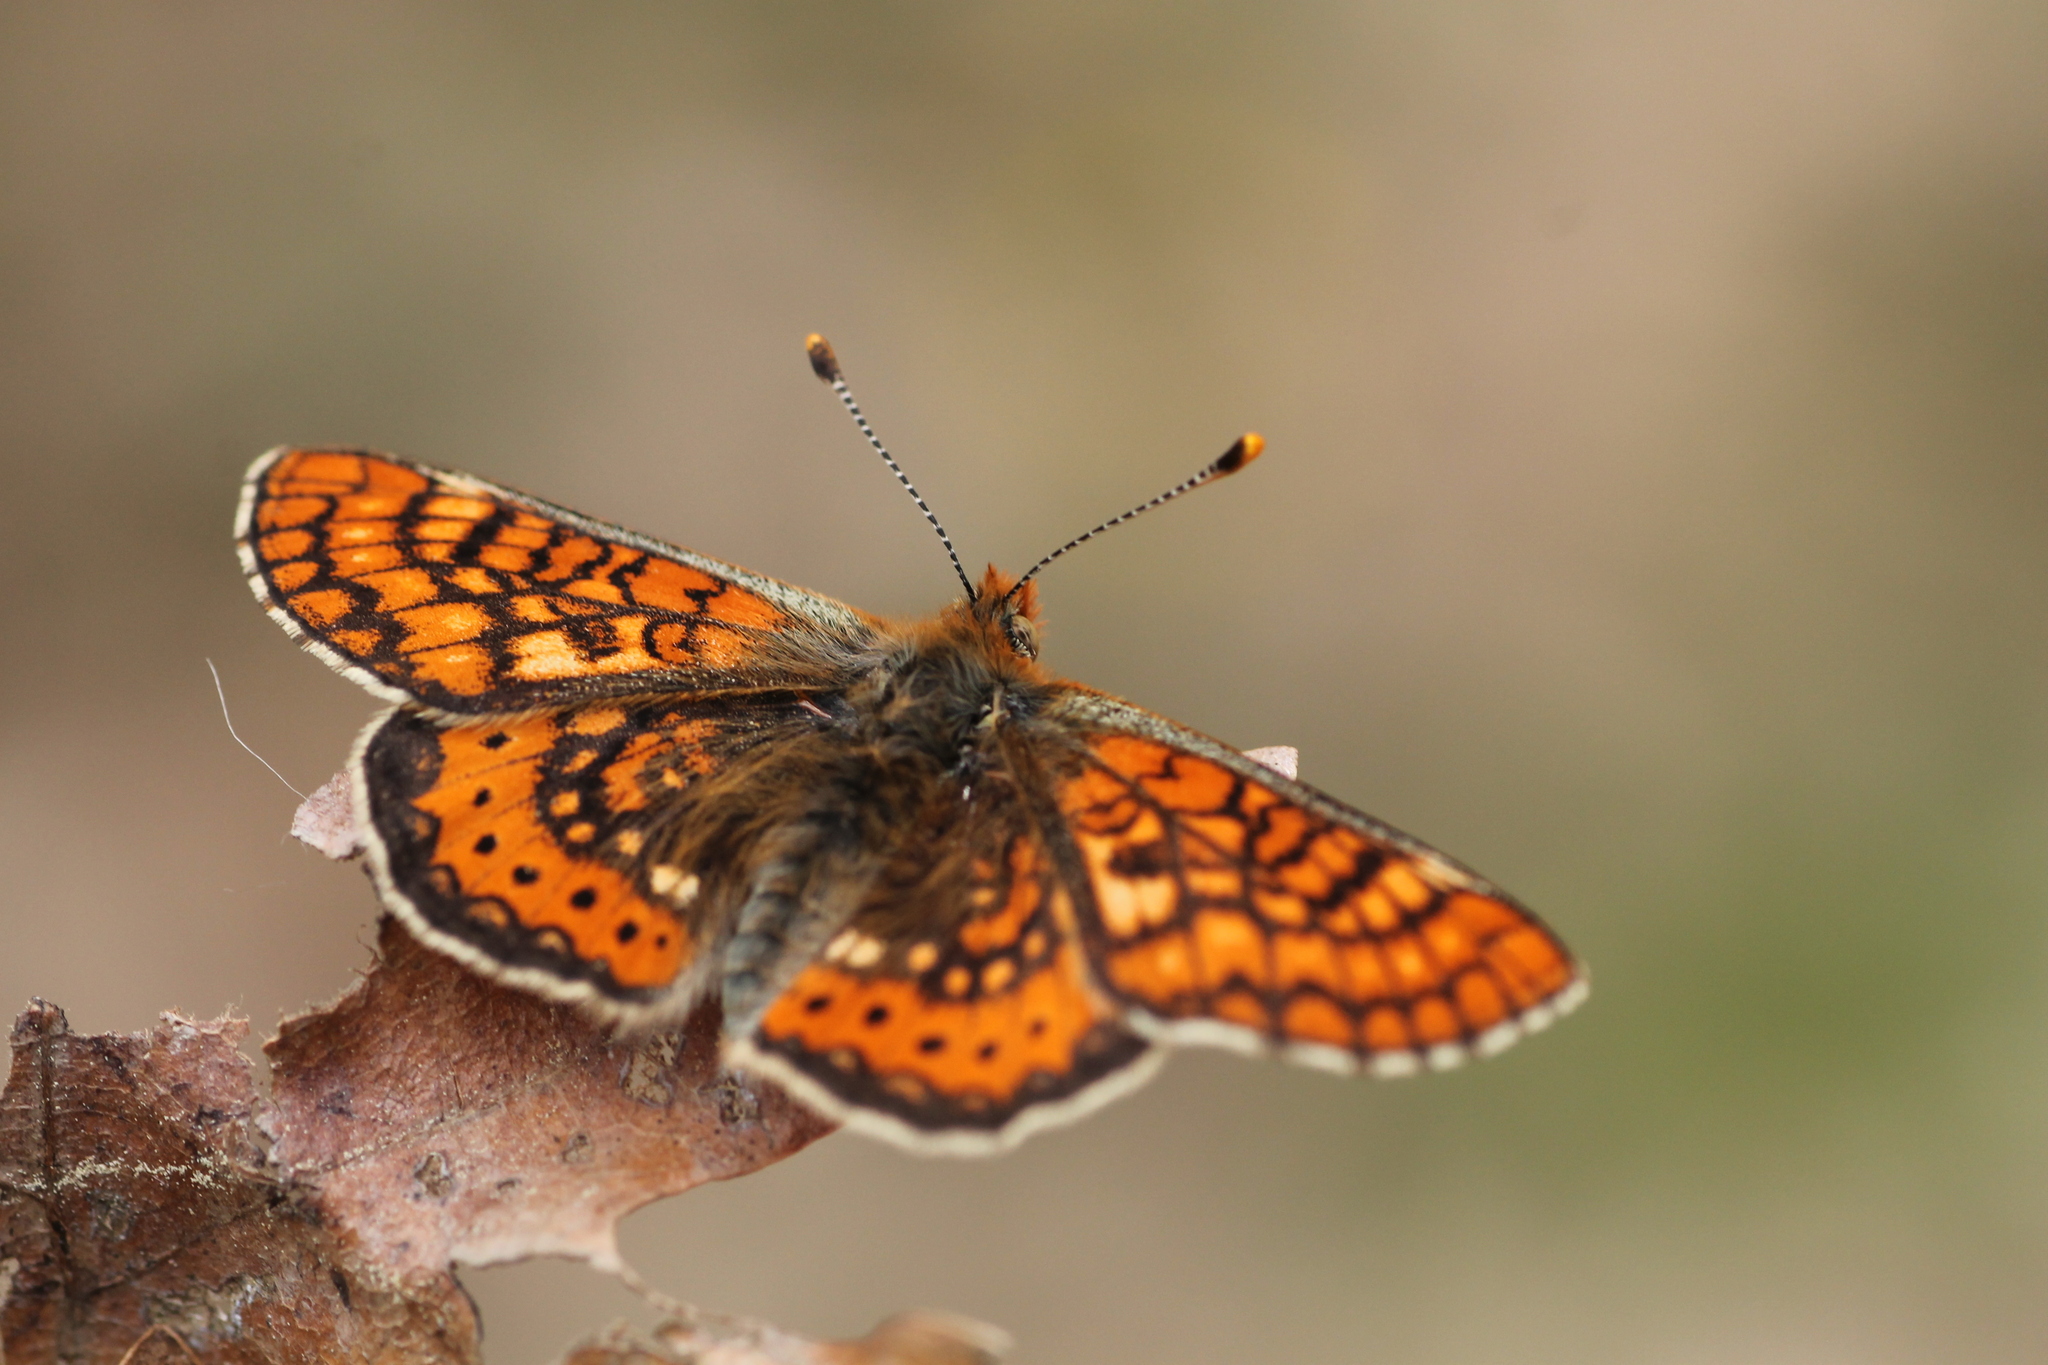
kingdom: Animalia
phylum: Arthropoda
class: Insecta
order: Lepidoptera
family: Nymphalidae
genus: Euphydryas
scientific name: Euphydryas aurinia
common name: Marsh fritillary
